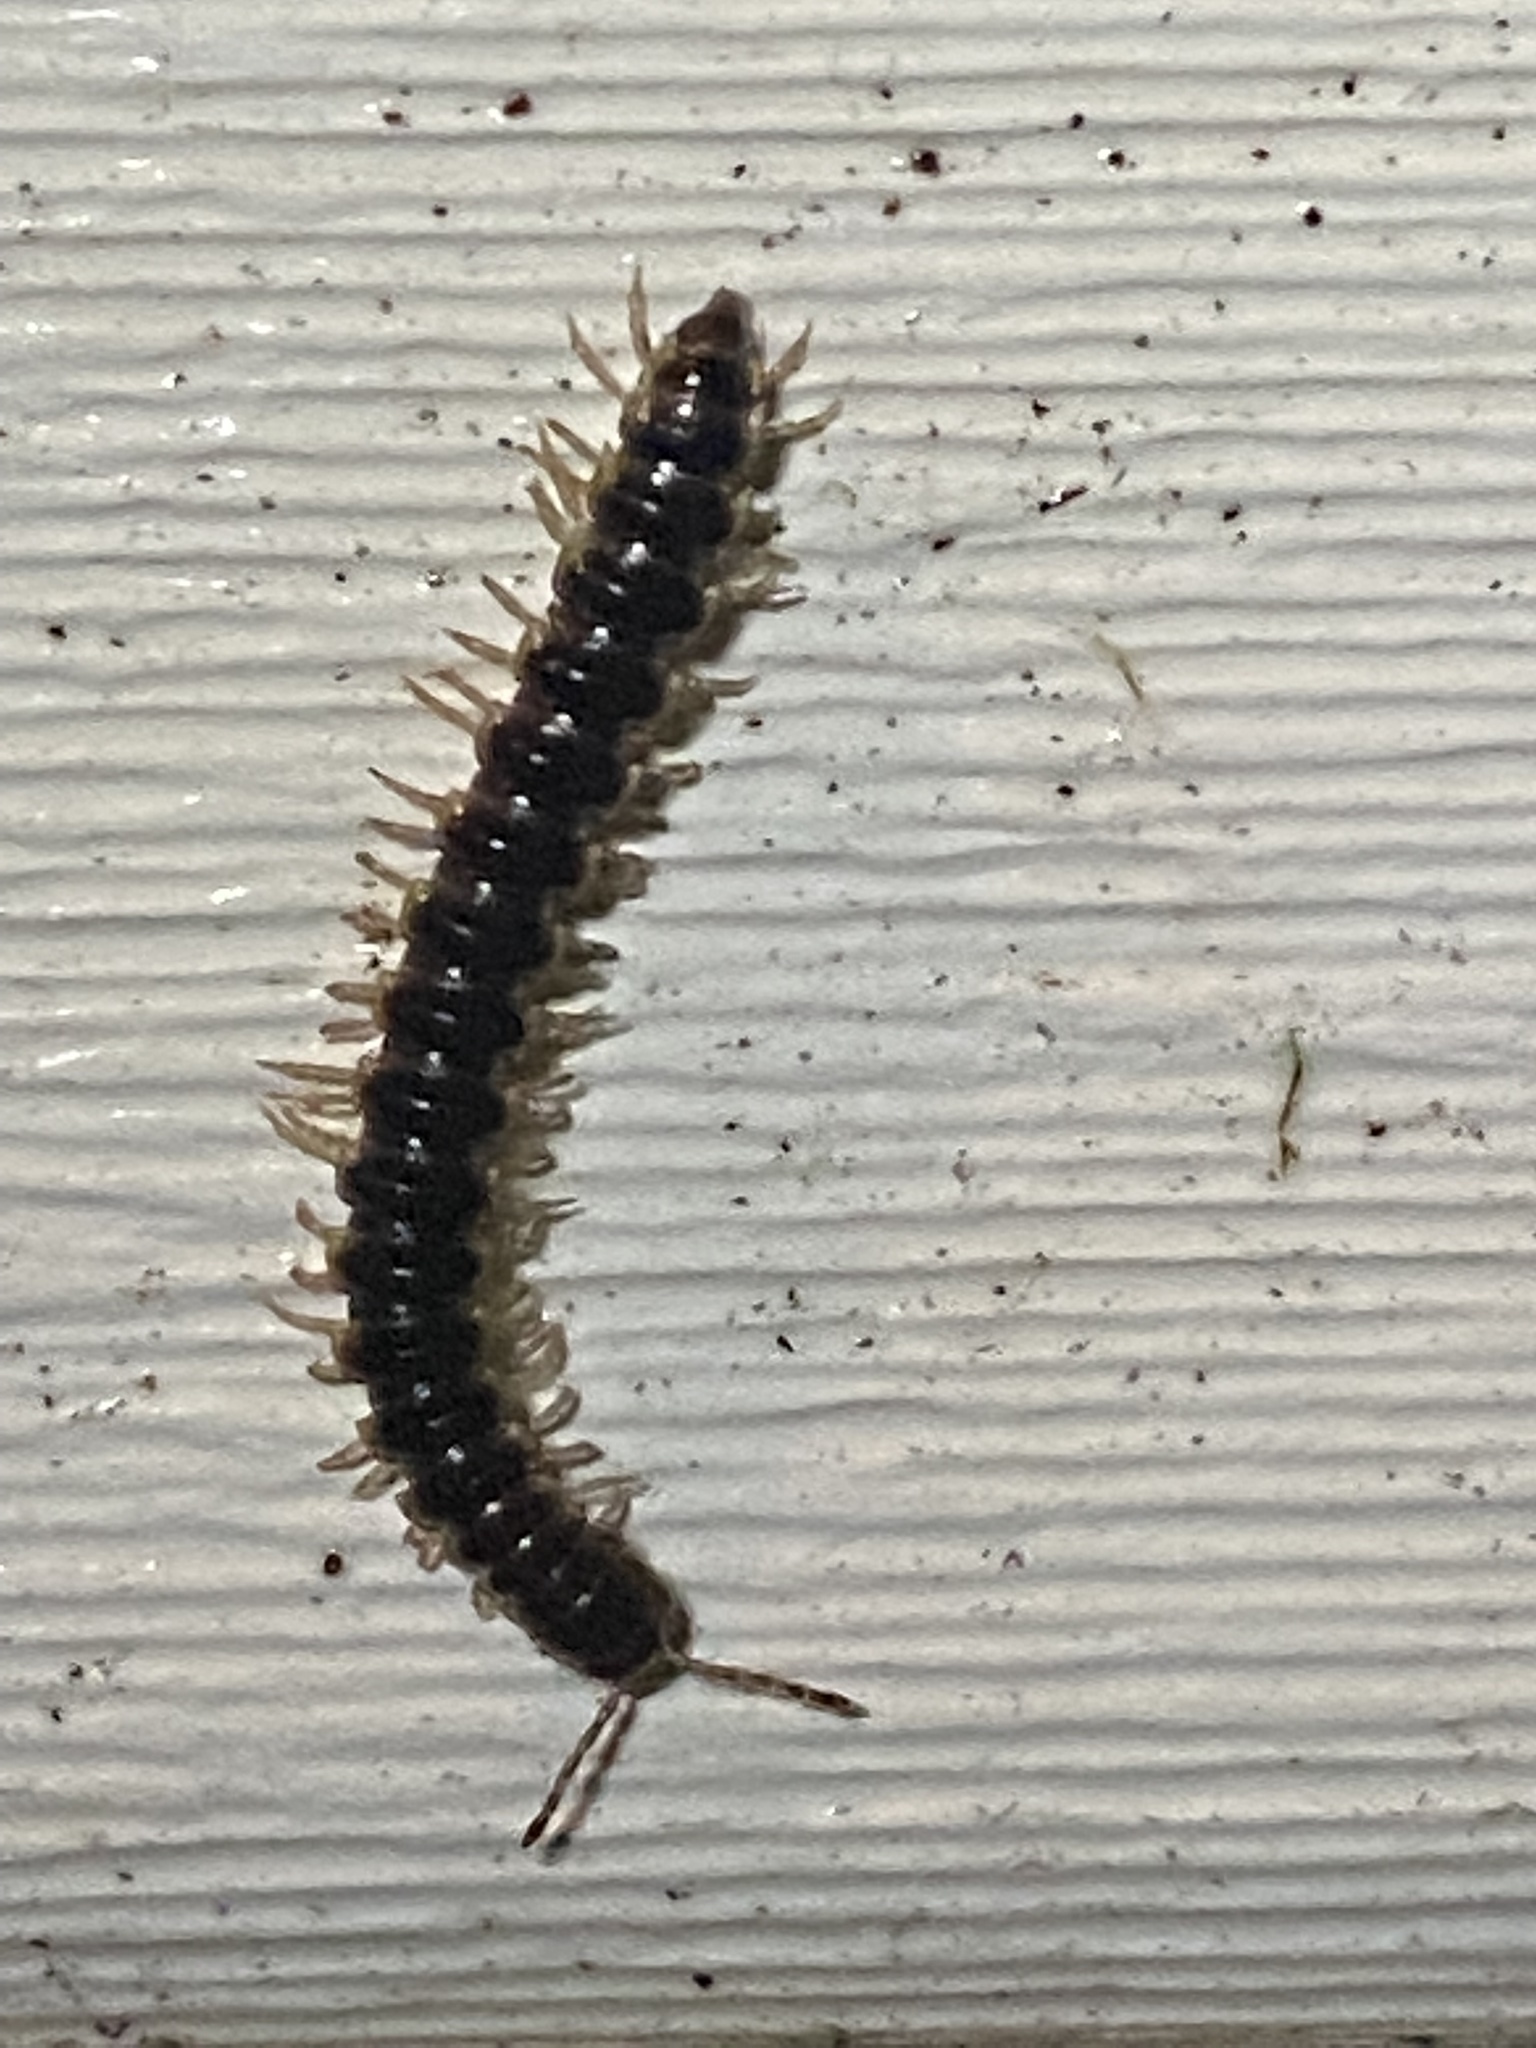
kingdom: Animalia
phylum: Arthropoda
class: Diplopoda
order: Polydesmida
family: Paradoxosomatidae
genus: Oxidus
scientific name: Oxidus gracilis
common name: Greenhouse millipede
